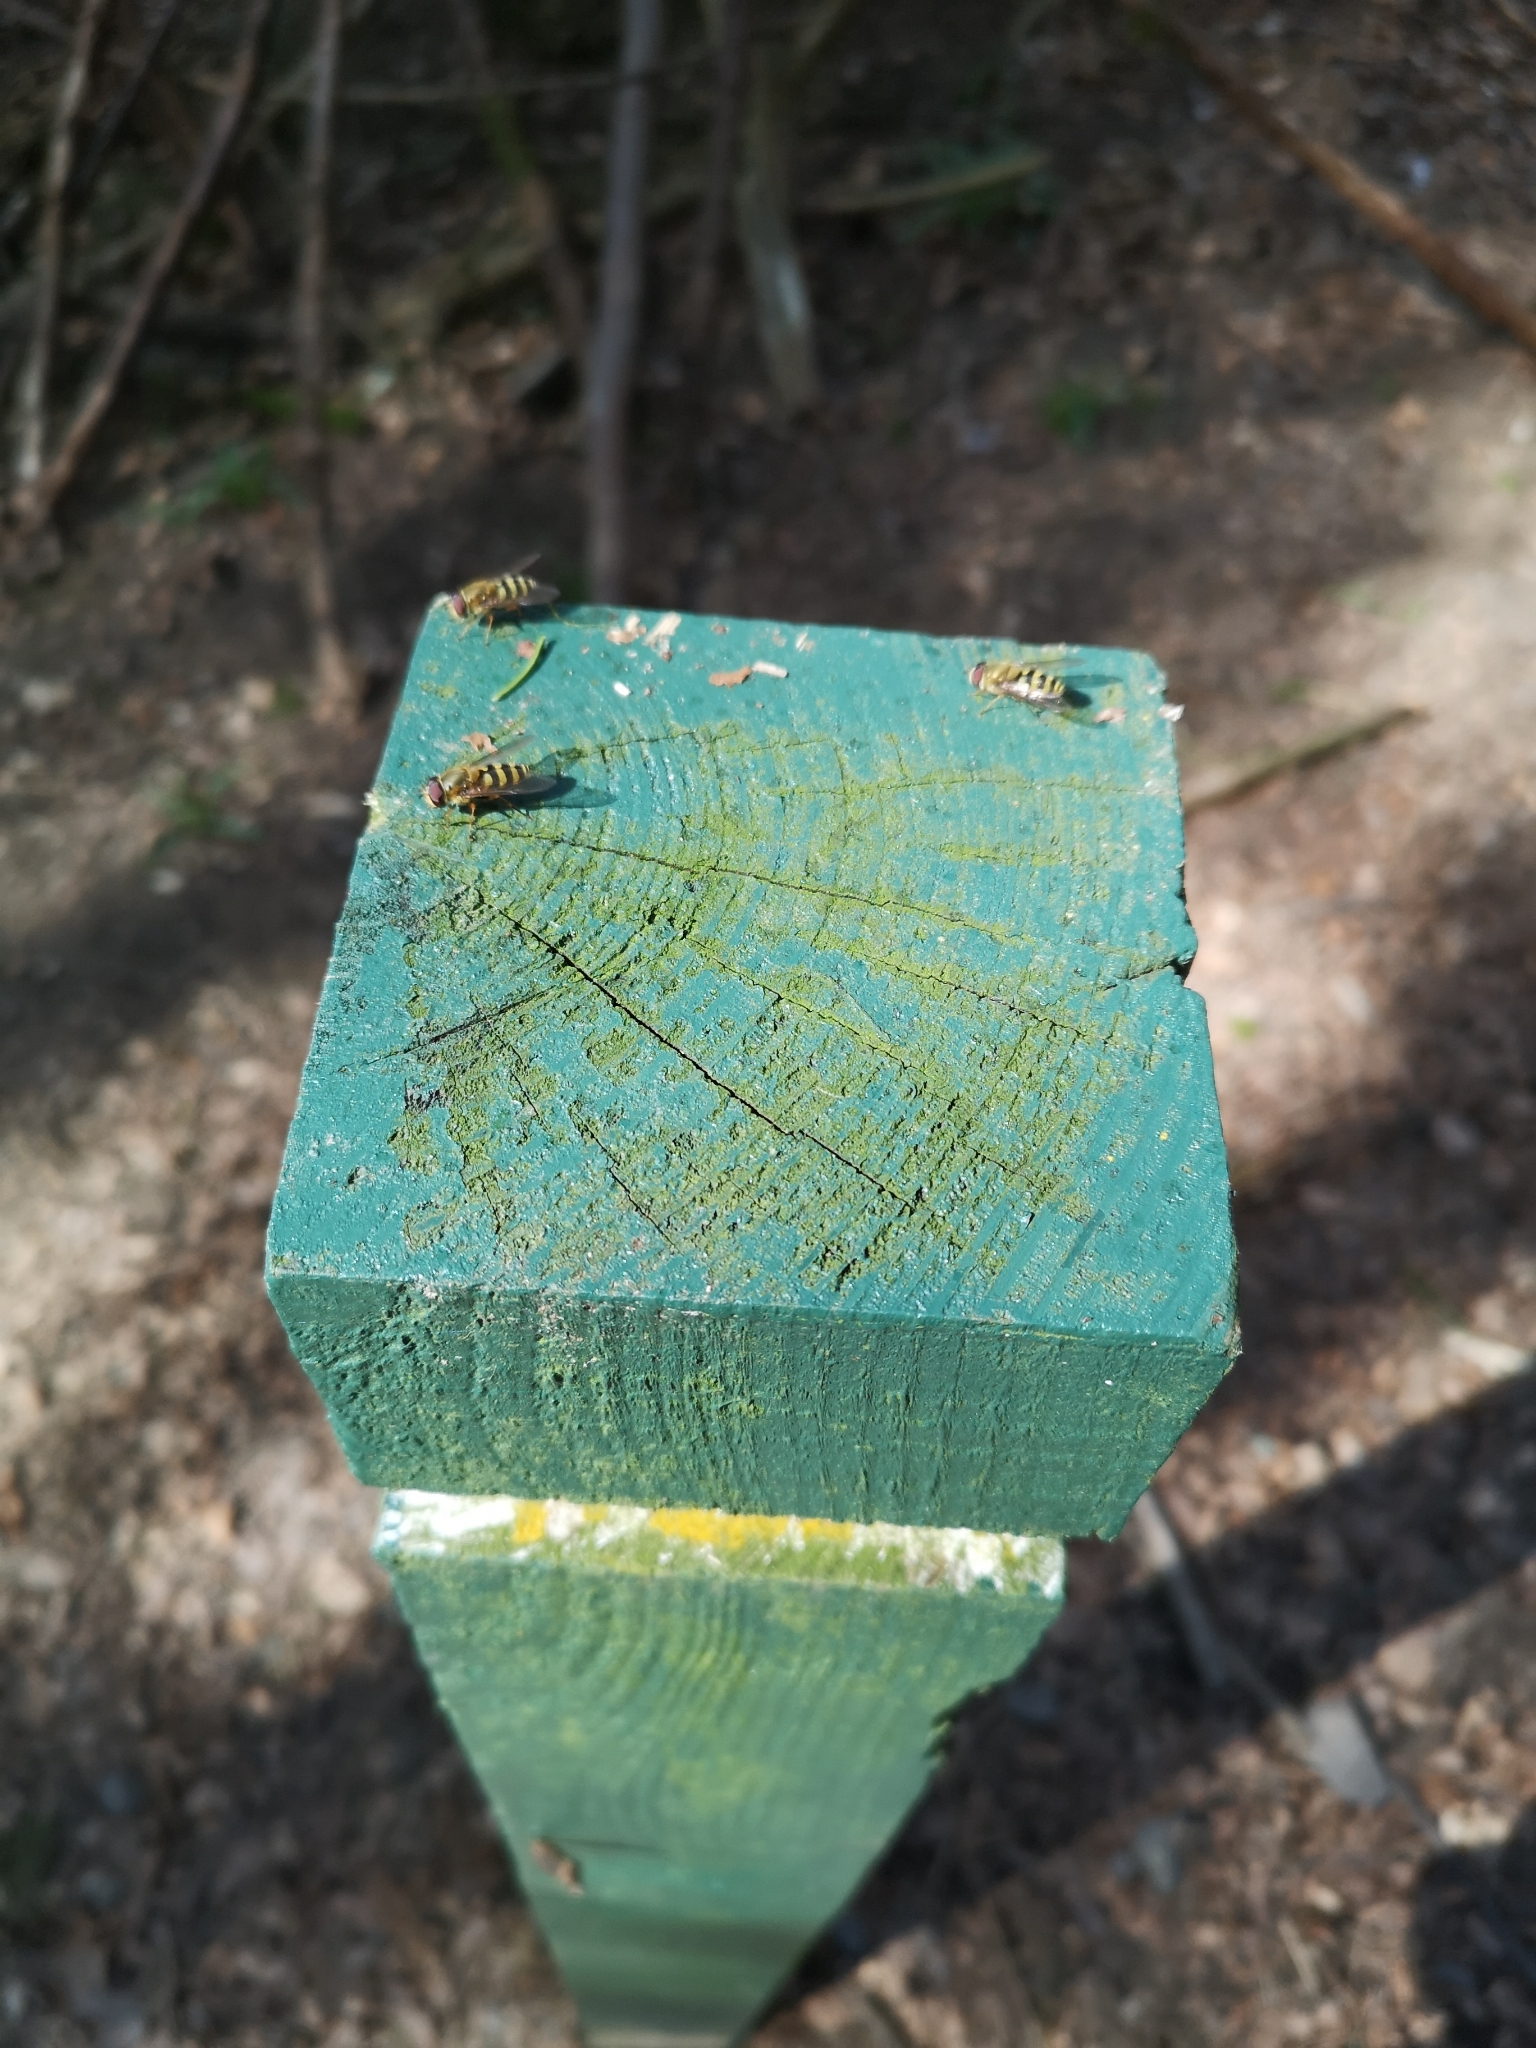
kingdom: Animalia
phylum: Arthropoda
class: Insecta
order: Diptera
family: Syrphidae
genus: Syrphus
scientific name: Syrphus
